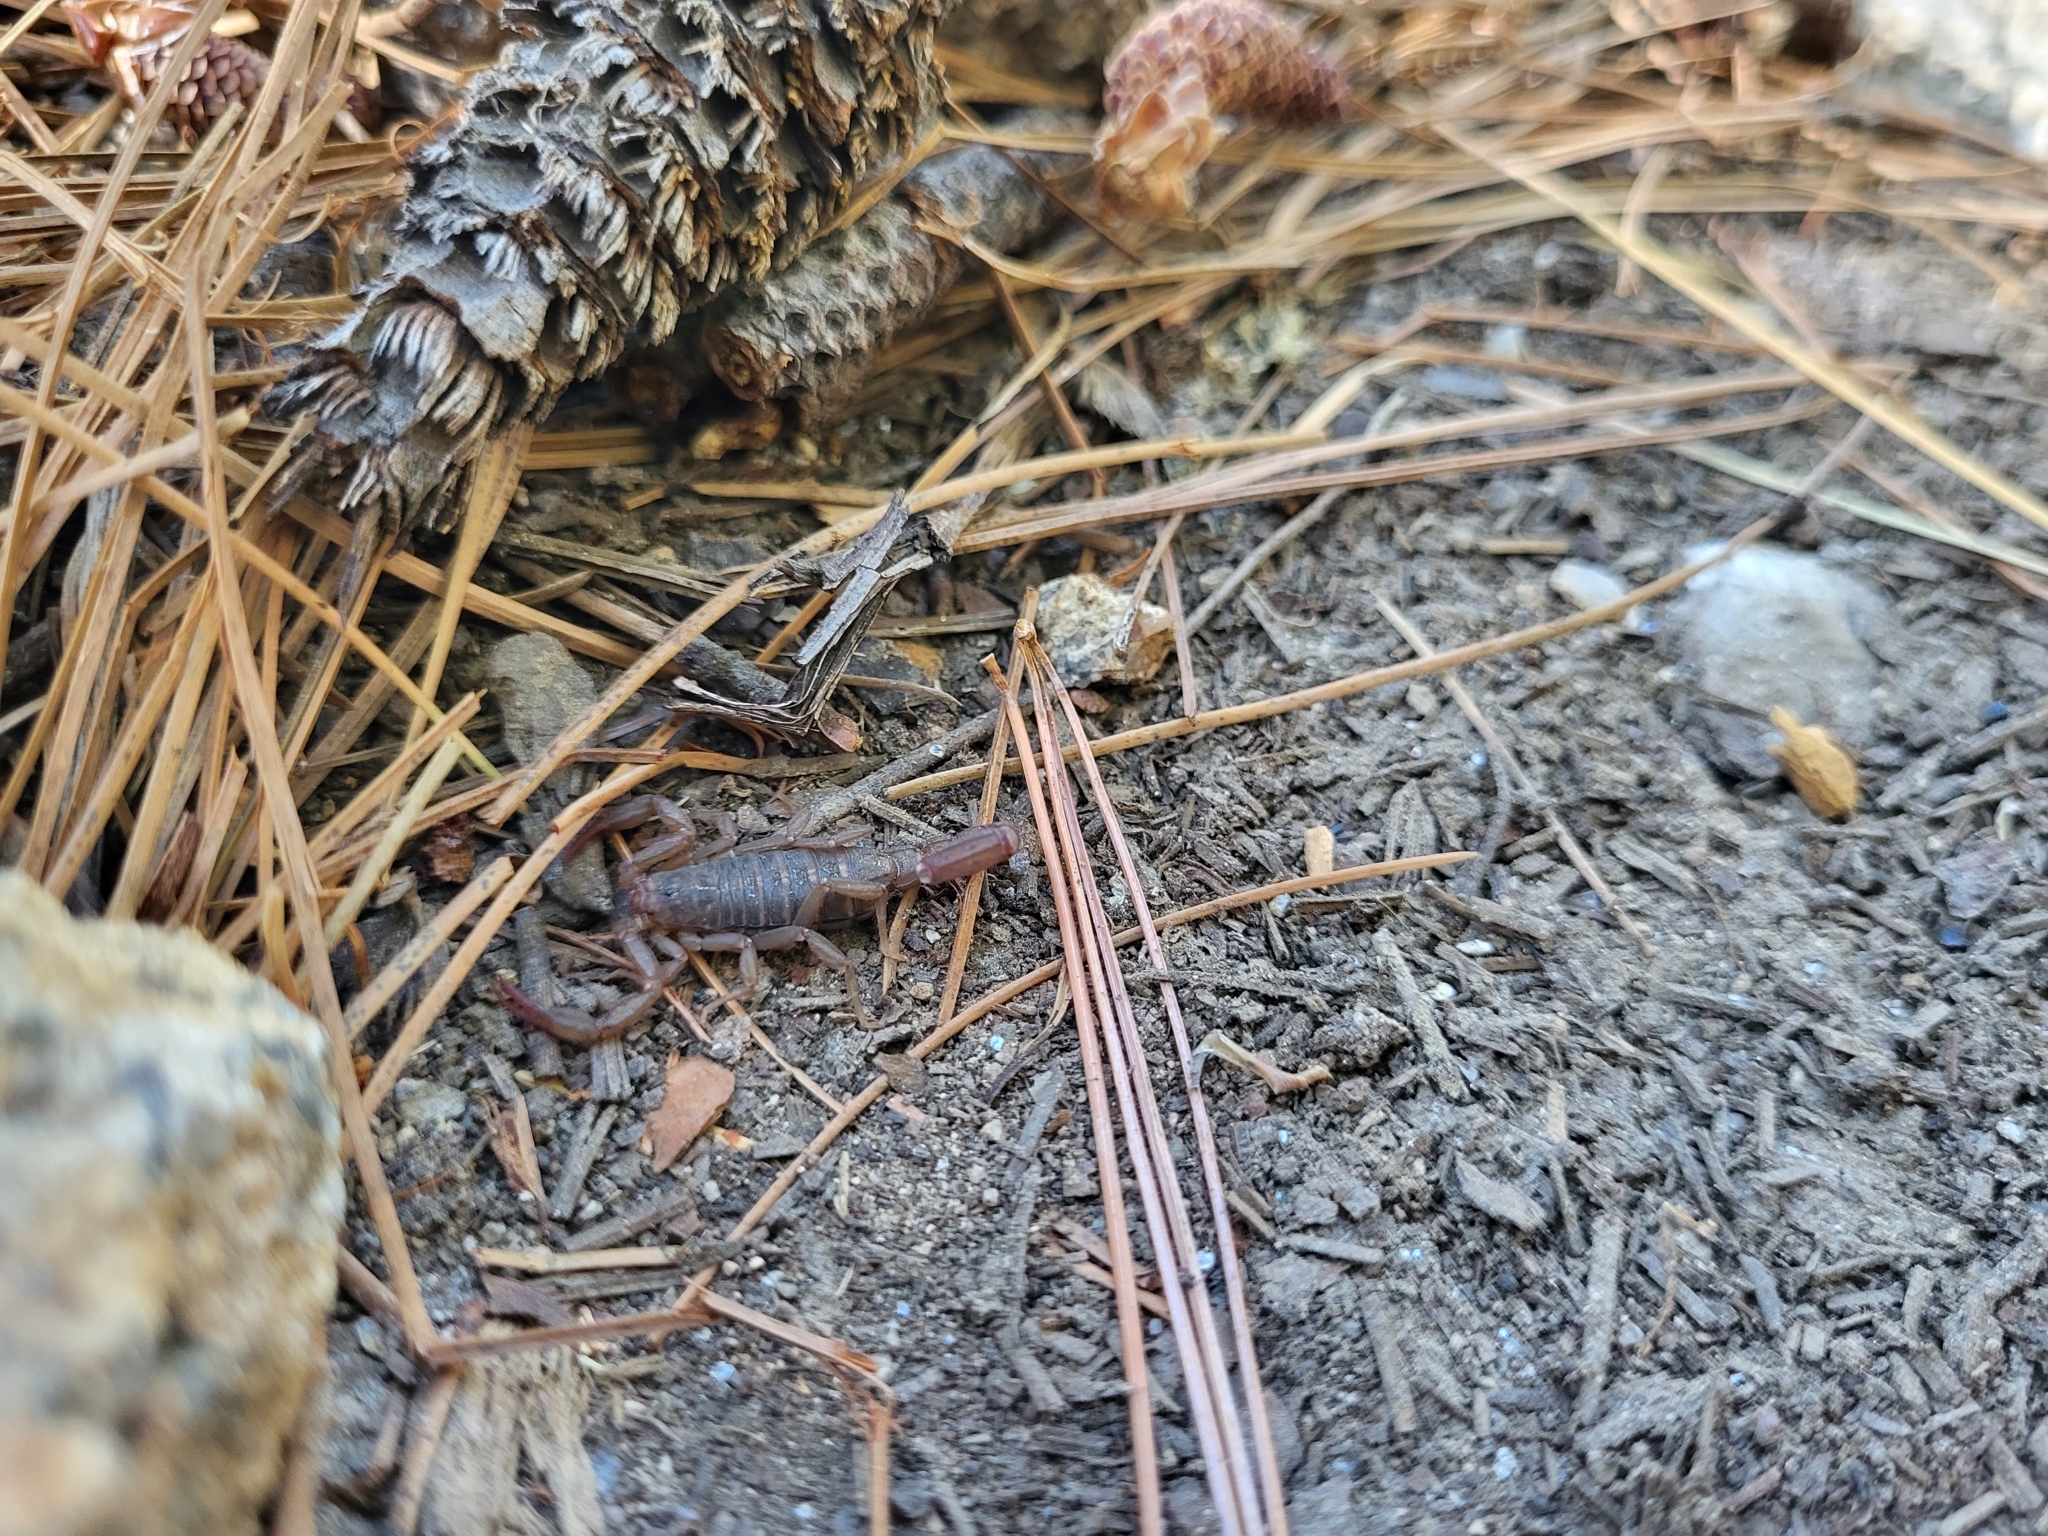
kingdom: Animalia
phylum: Arthropoda
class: Arachnida
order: Scorpiones
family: Vaejovidae
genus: Vaejovis
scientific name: Vaejovis deboerae
